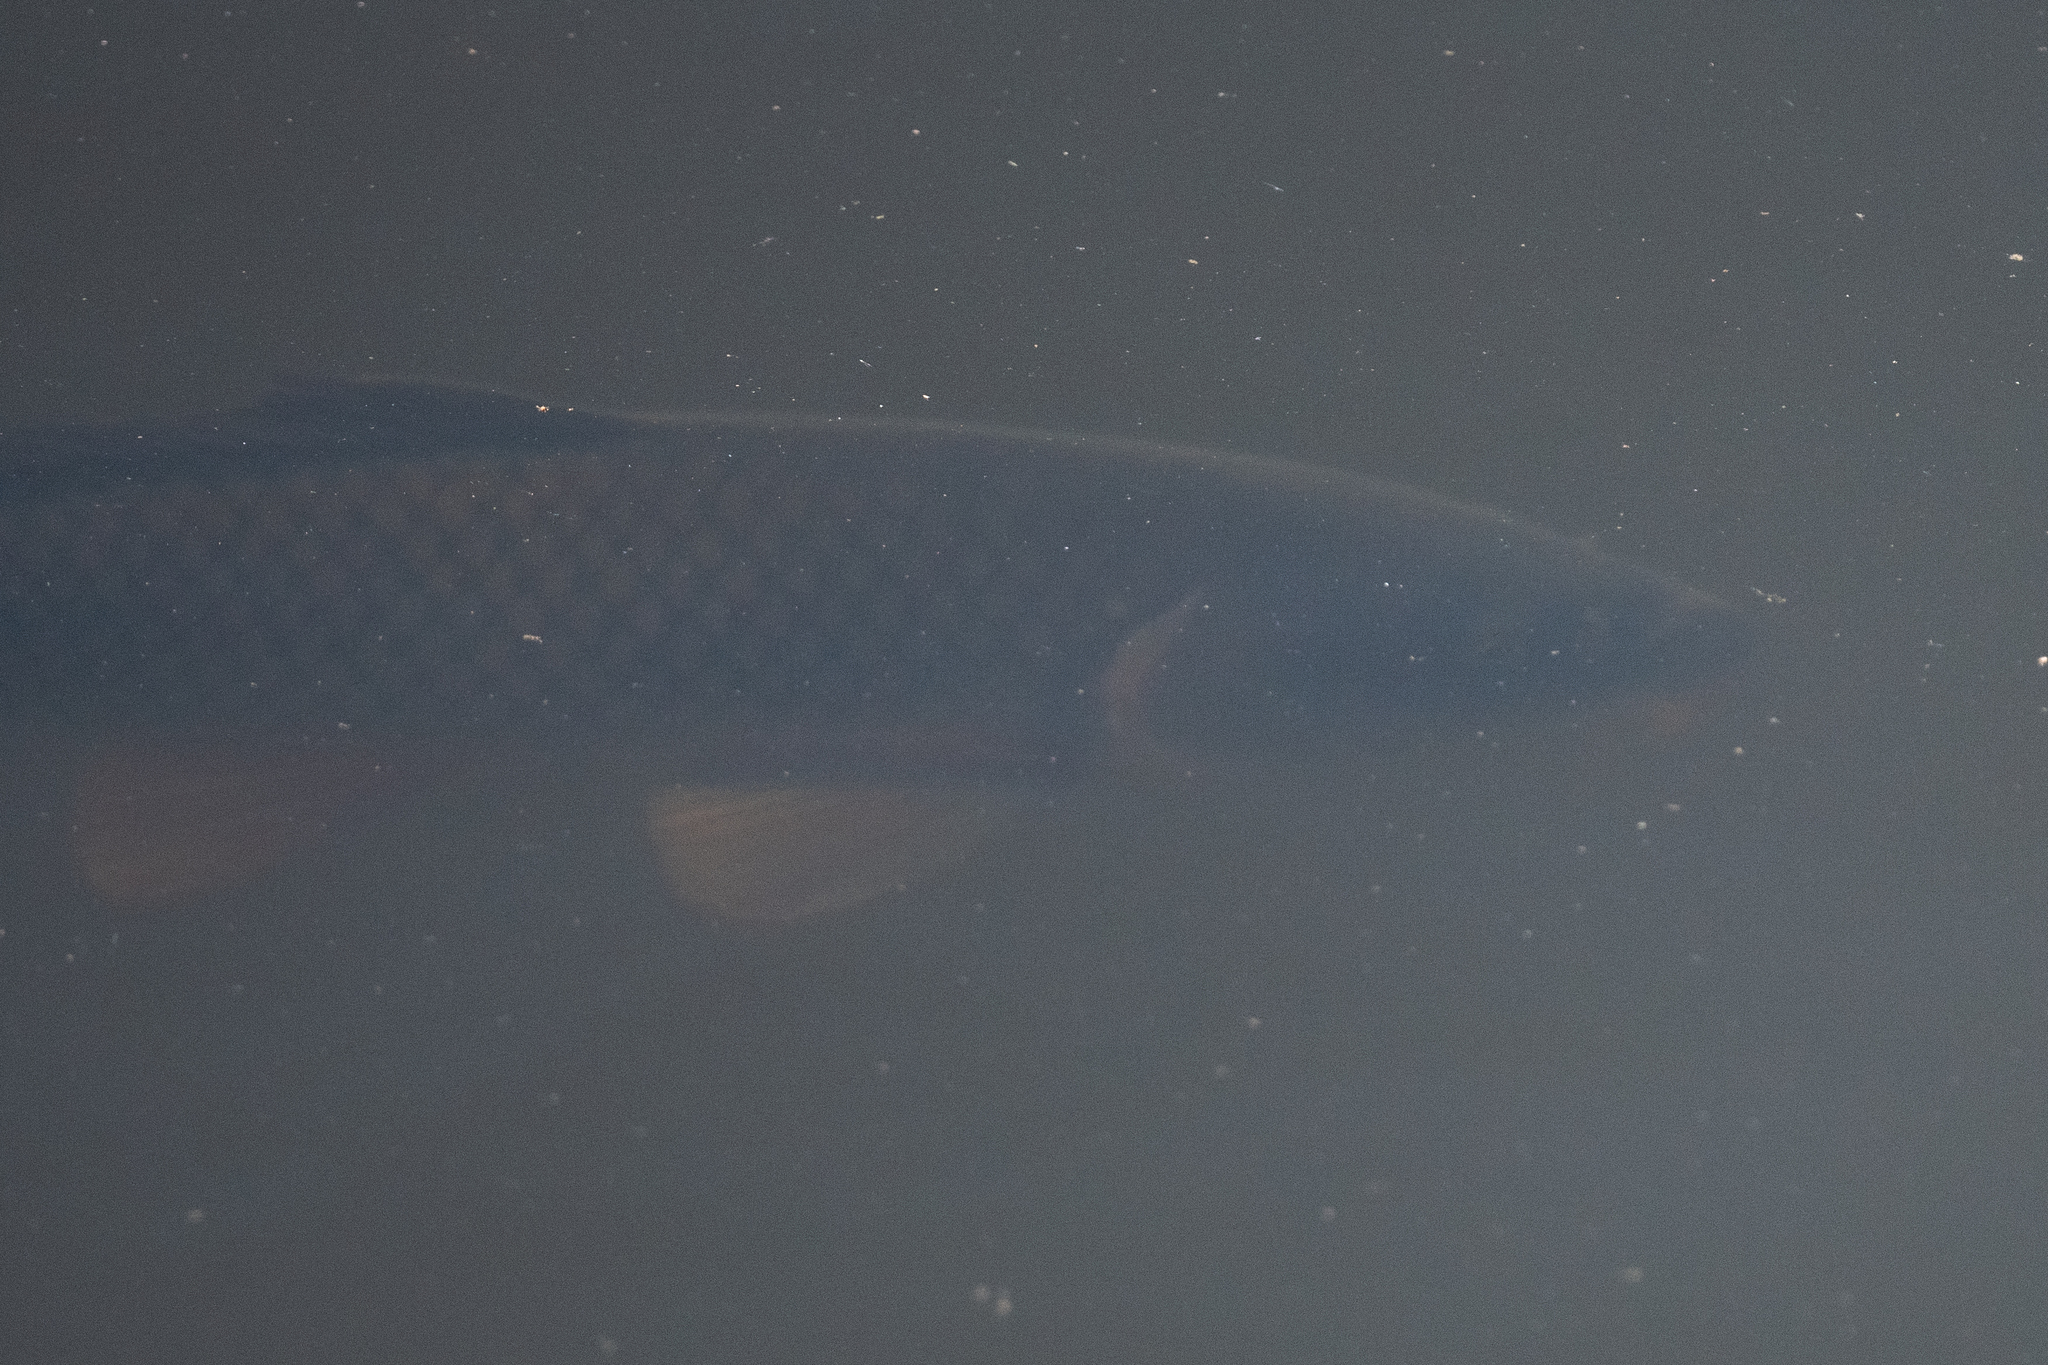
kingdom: Animalia
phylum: Chordata
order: Cypriniformes
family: Cyprinidae
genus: Cyprinus
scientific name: Cyprinus carpio
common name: Common carp
